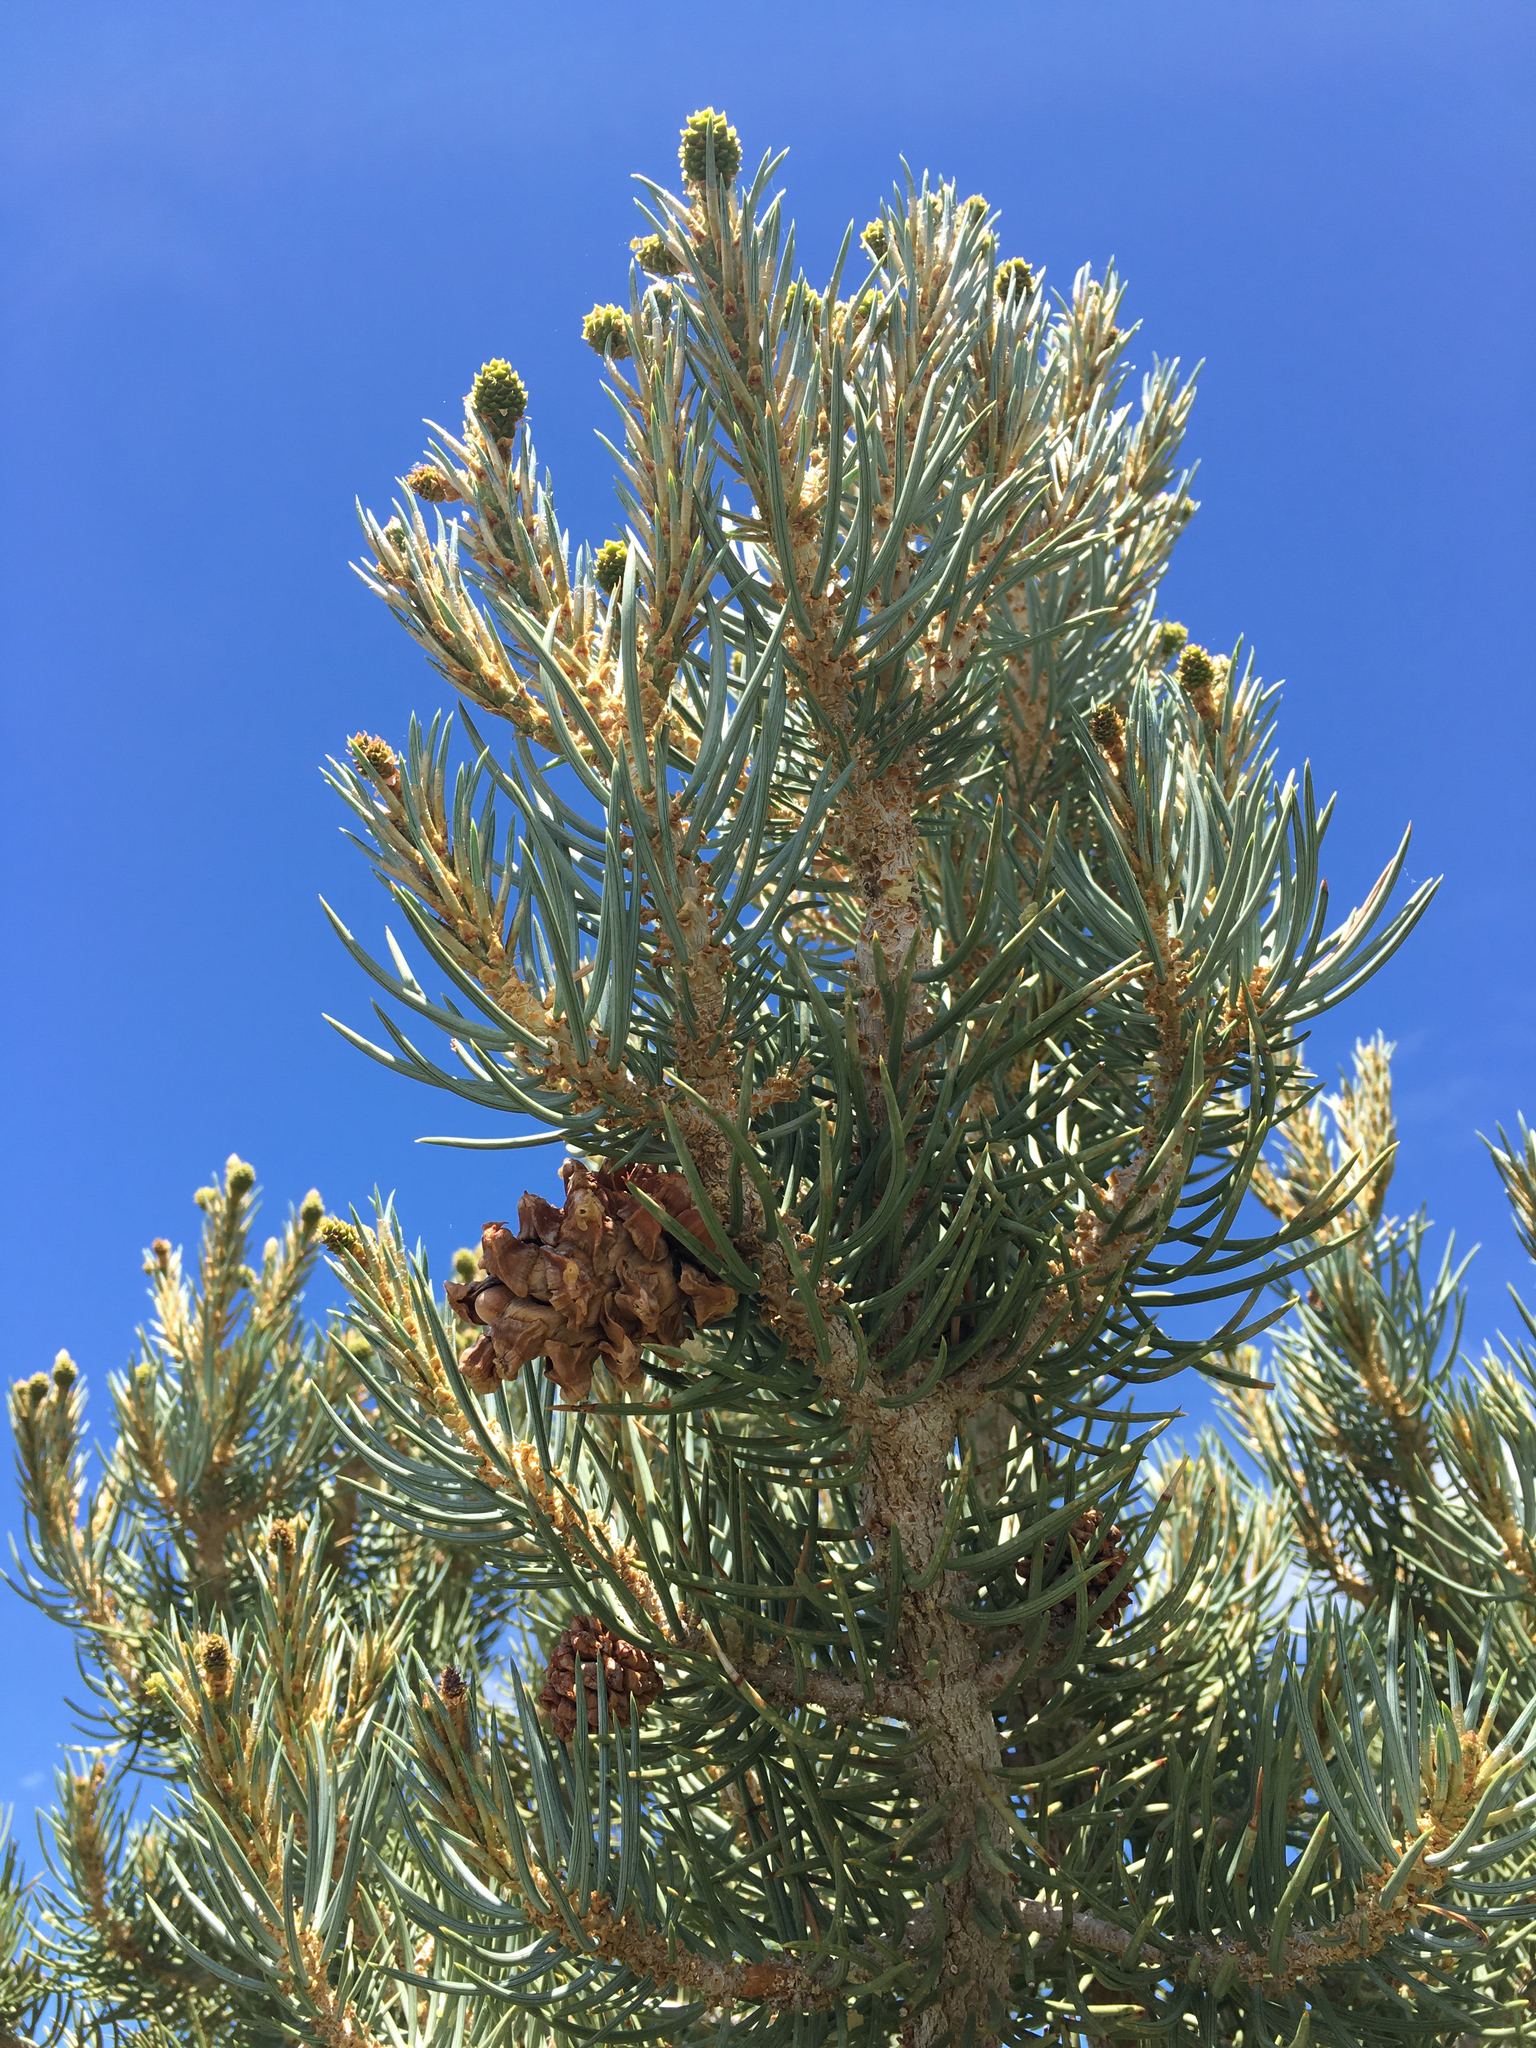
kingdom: Plantae
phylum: Tracheophyta
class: Pinopsida
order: Pinales
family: Pinaceae
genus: Pinus
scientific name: Pinus monophylla
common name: One-leaved nut pine
